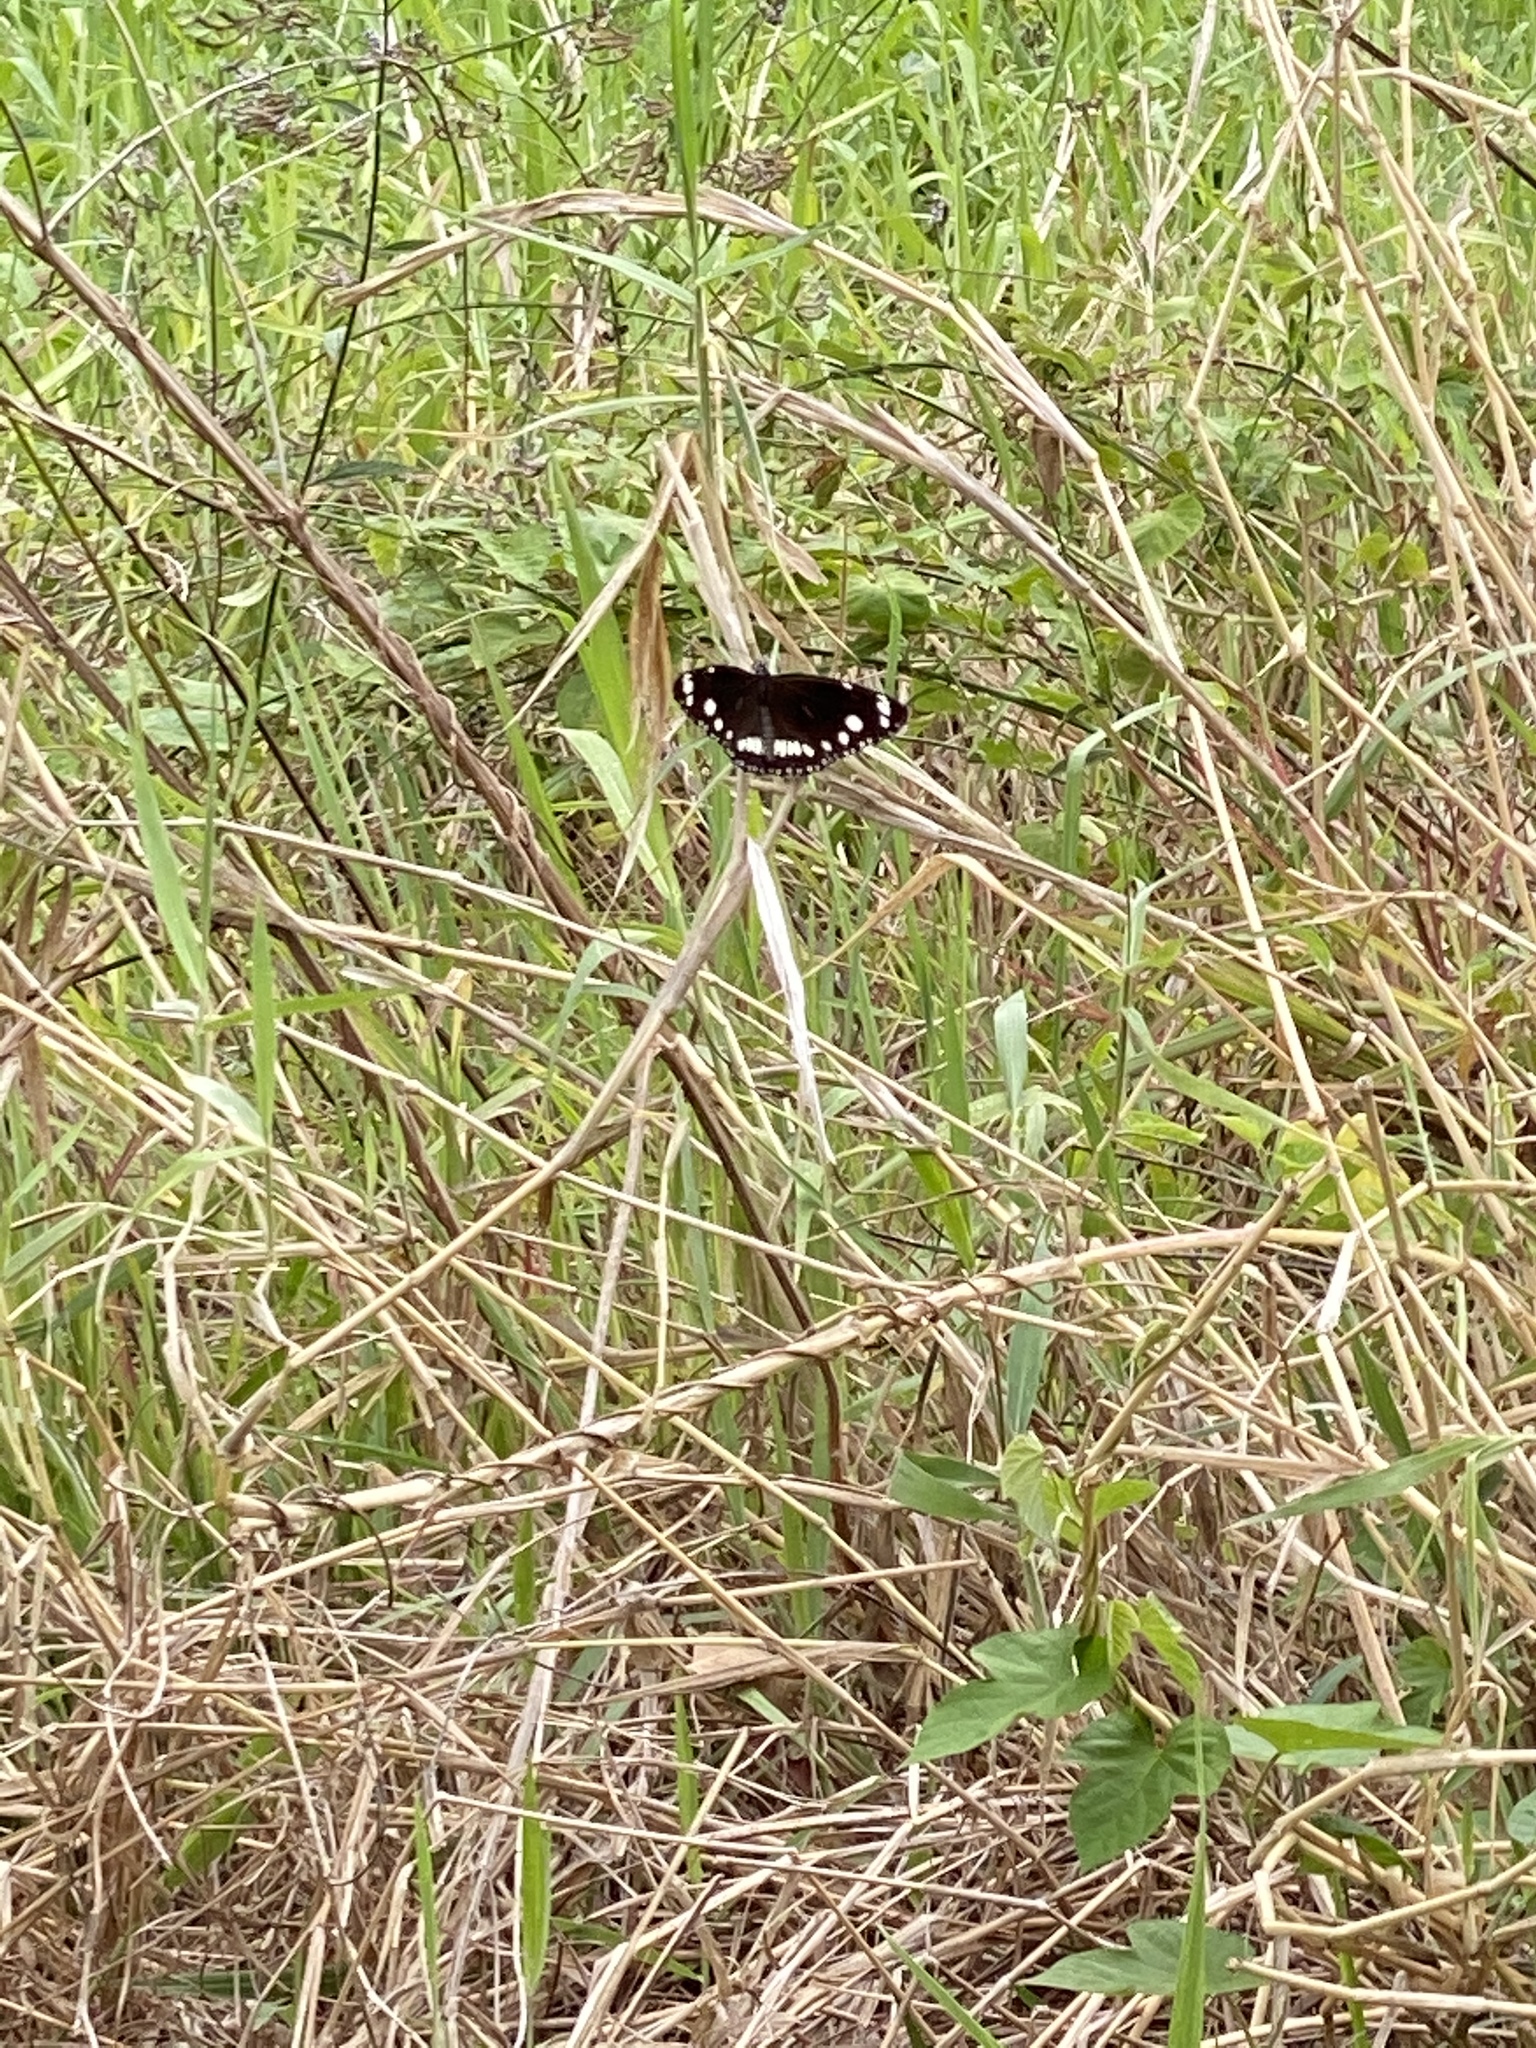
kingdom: Animalia
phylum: Arthropoda
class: Insecta
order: Lepidoptera
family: Nymphalidae
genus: Euploea
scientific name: Euploea core
